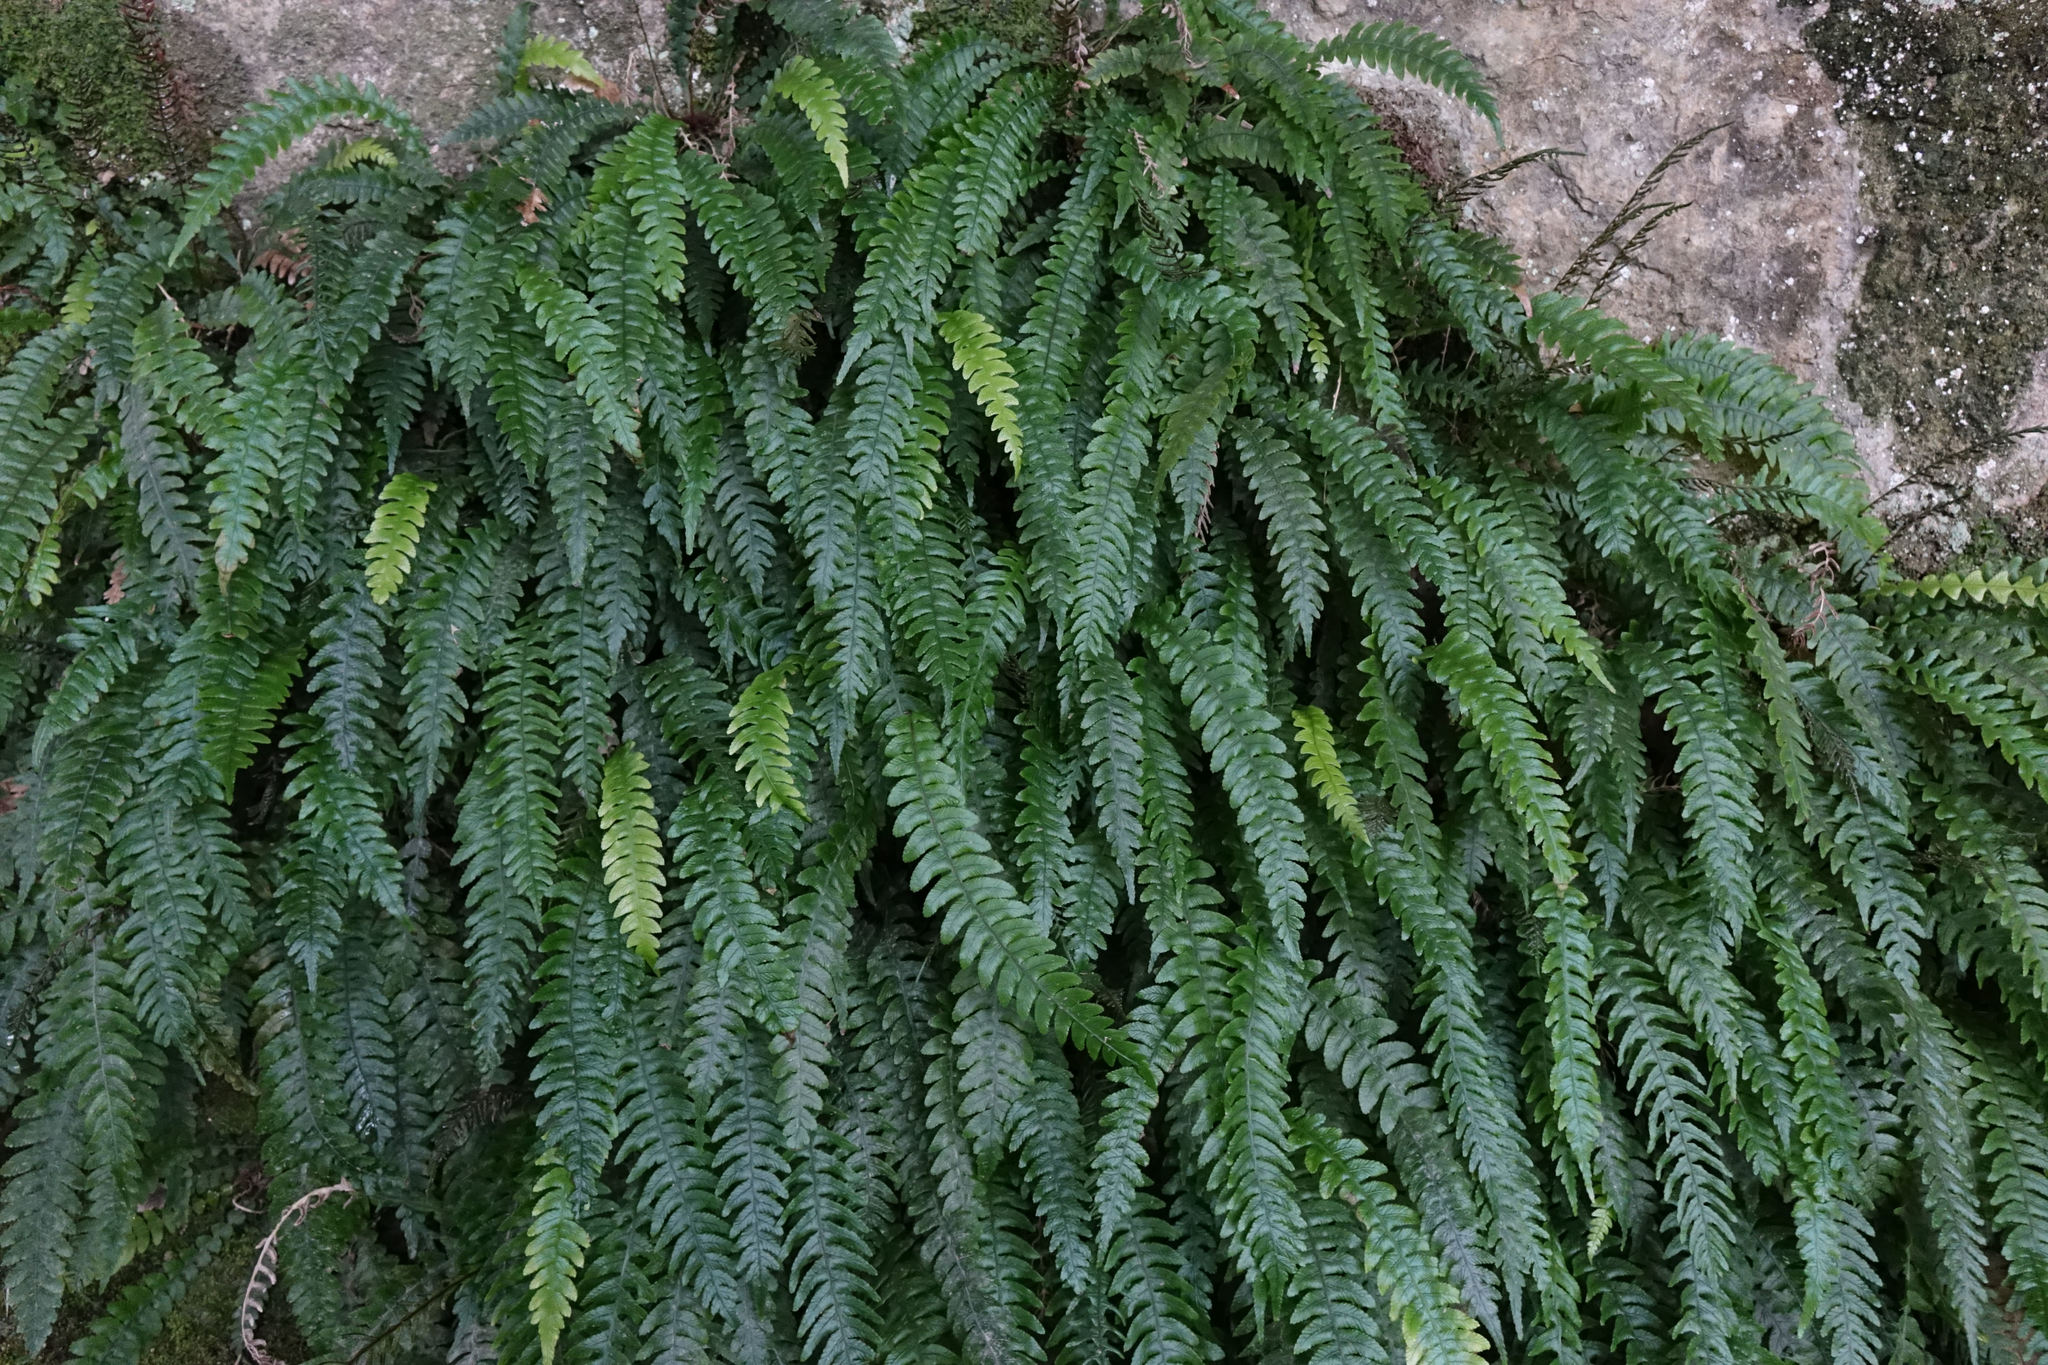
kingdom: Plantae
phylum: Tracheophyta
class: Polypodiopsida
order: Polypodiales
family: Blechnaceae
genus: Austroblechnum
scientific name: Austroblechnum lanceolatum
